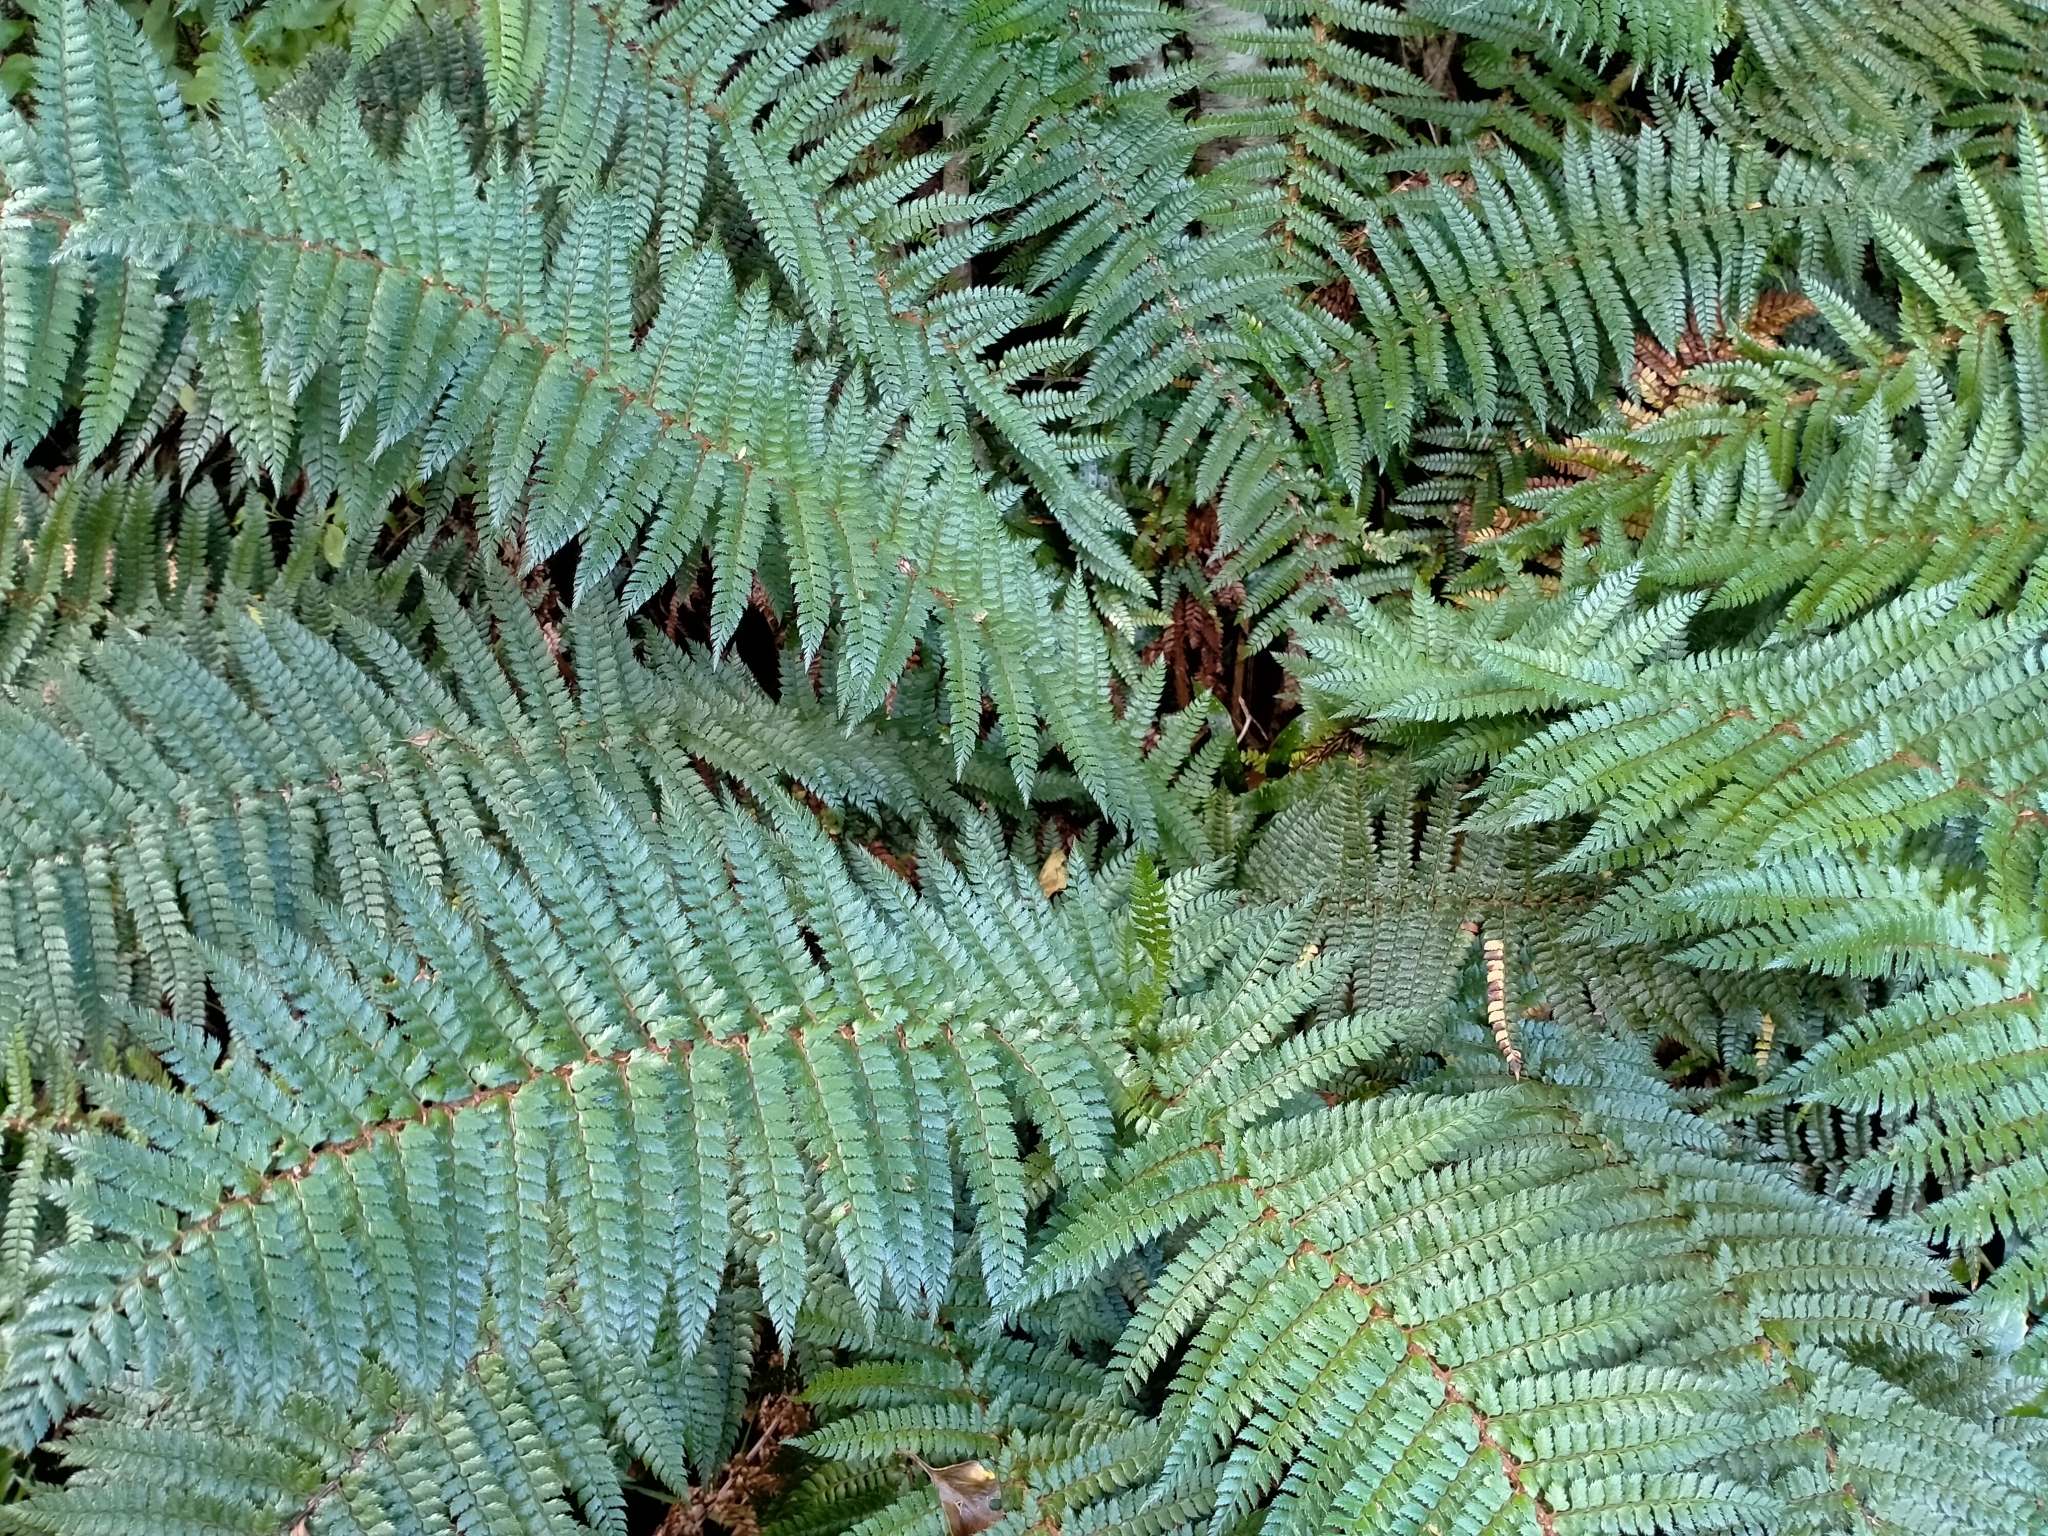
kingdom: Plantae
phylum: Tracheophyta
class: Polypodiopsida
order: Polypodiales
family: Dryopteridaceae
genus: Polystichum
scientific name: Polystichum vestitum
